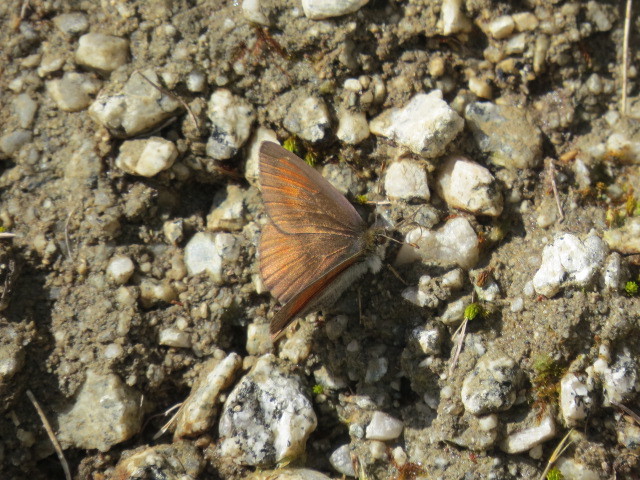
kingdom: Animalia
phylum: Arthropoda
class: Insecta
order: Lepidoptera
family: Nymphalidae
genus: Erebia
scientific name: Erebia tyndarus
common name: Swiss brassy ringlet
